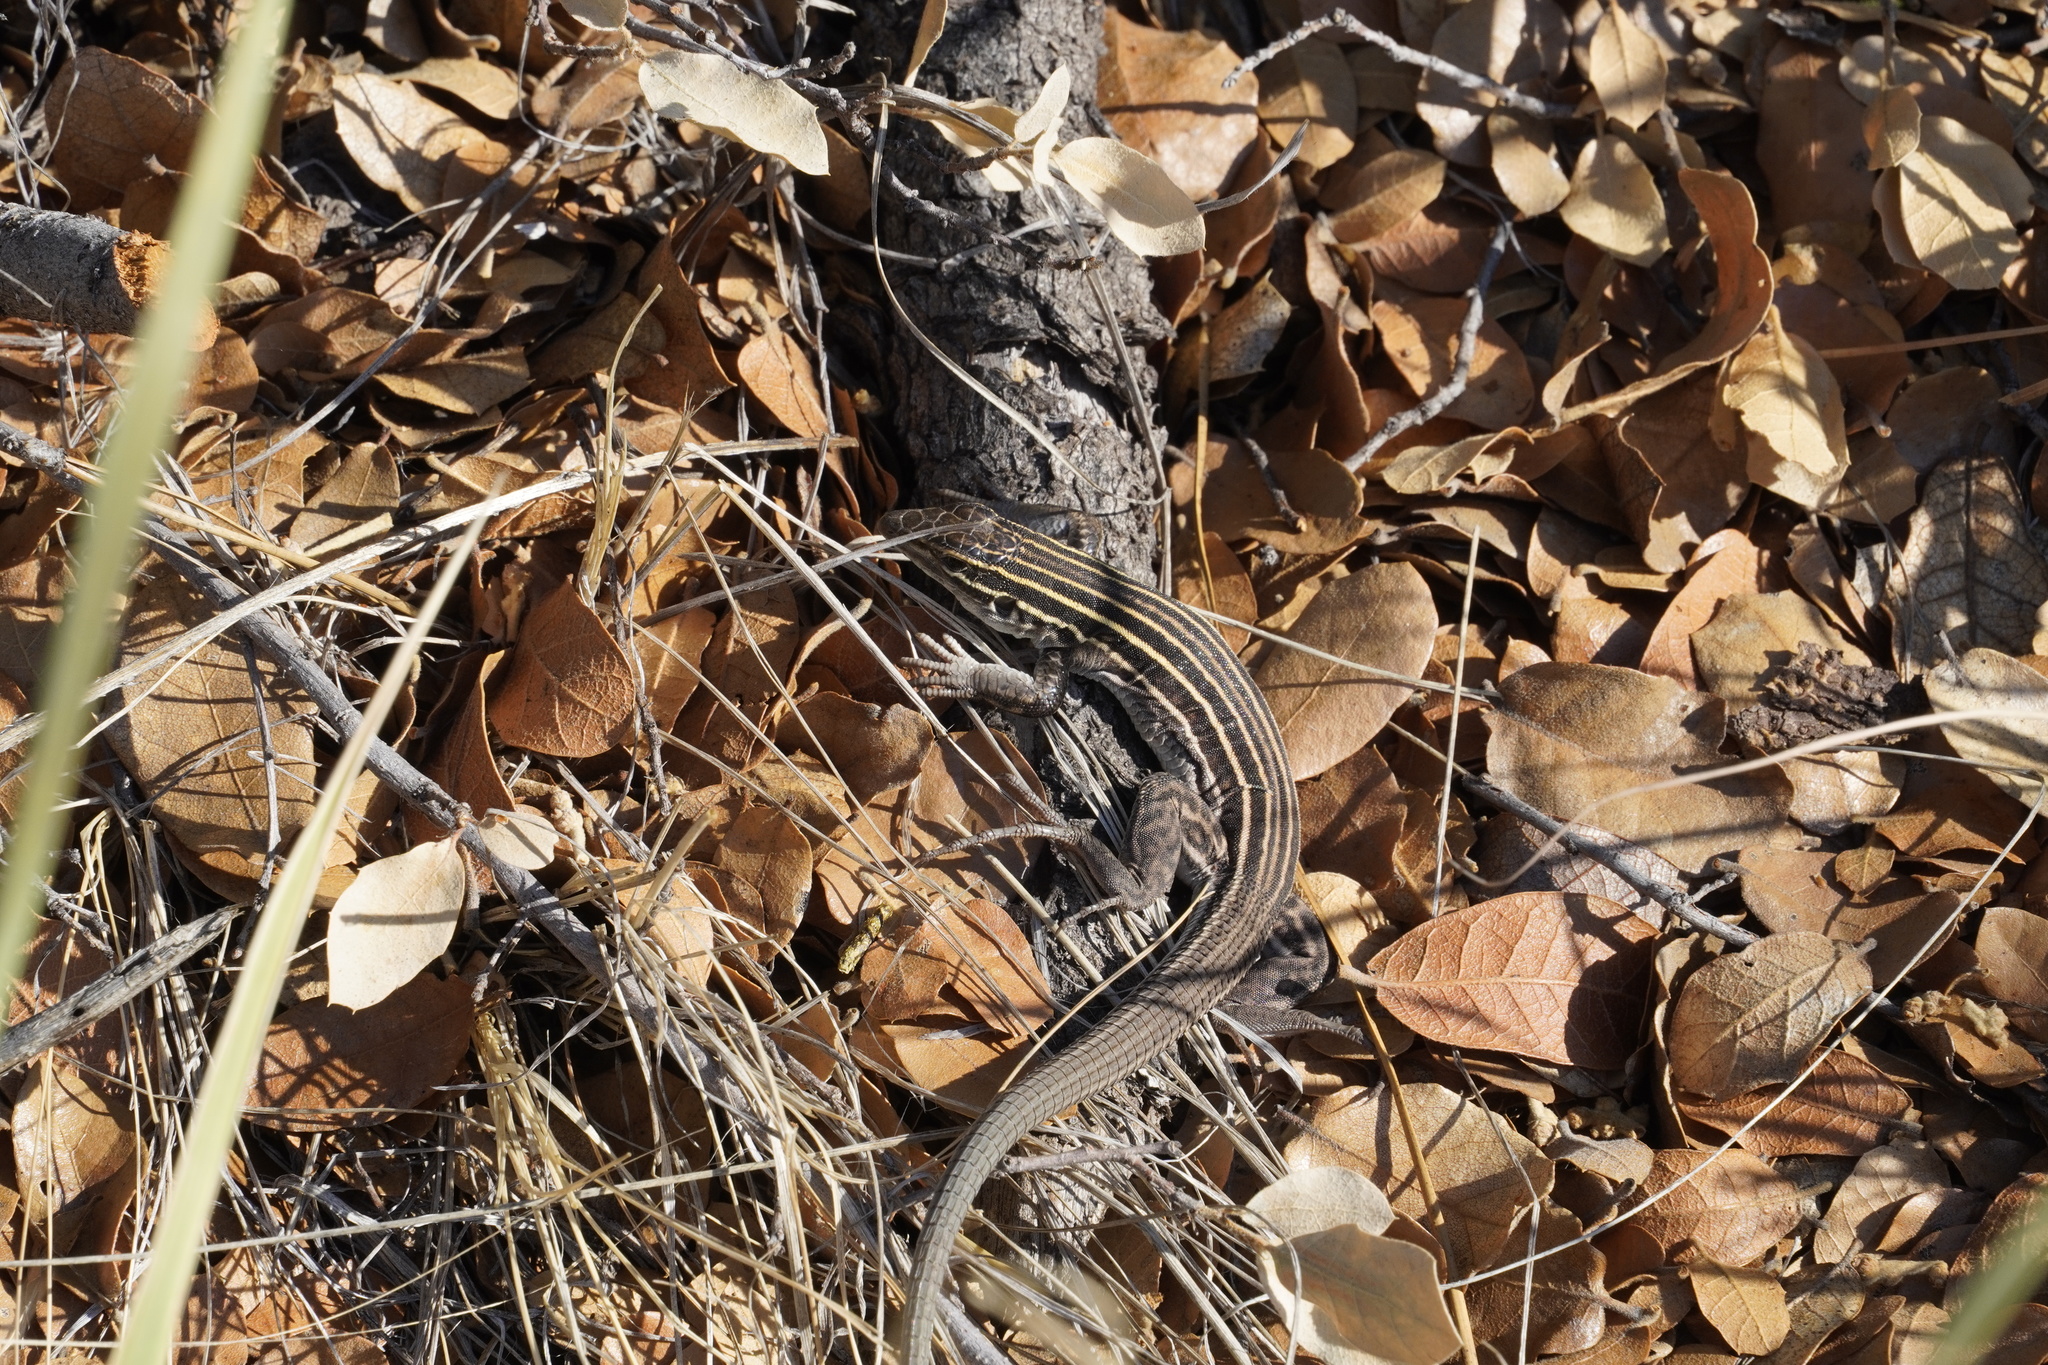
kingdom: Animalia
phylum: Chordata
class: Squamata
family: Teiidae
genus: Aspidoscelis
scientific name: Aspidoscelis velox
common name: Plateau striped whiptail
